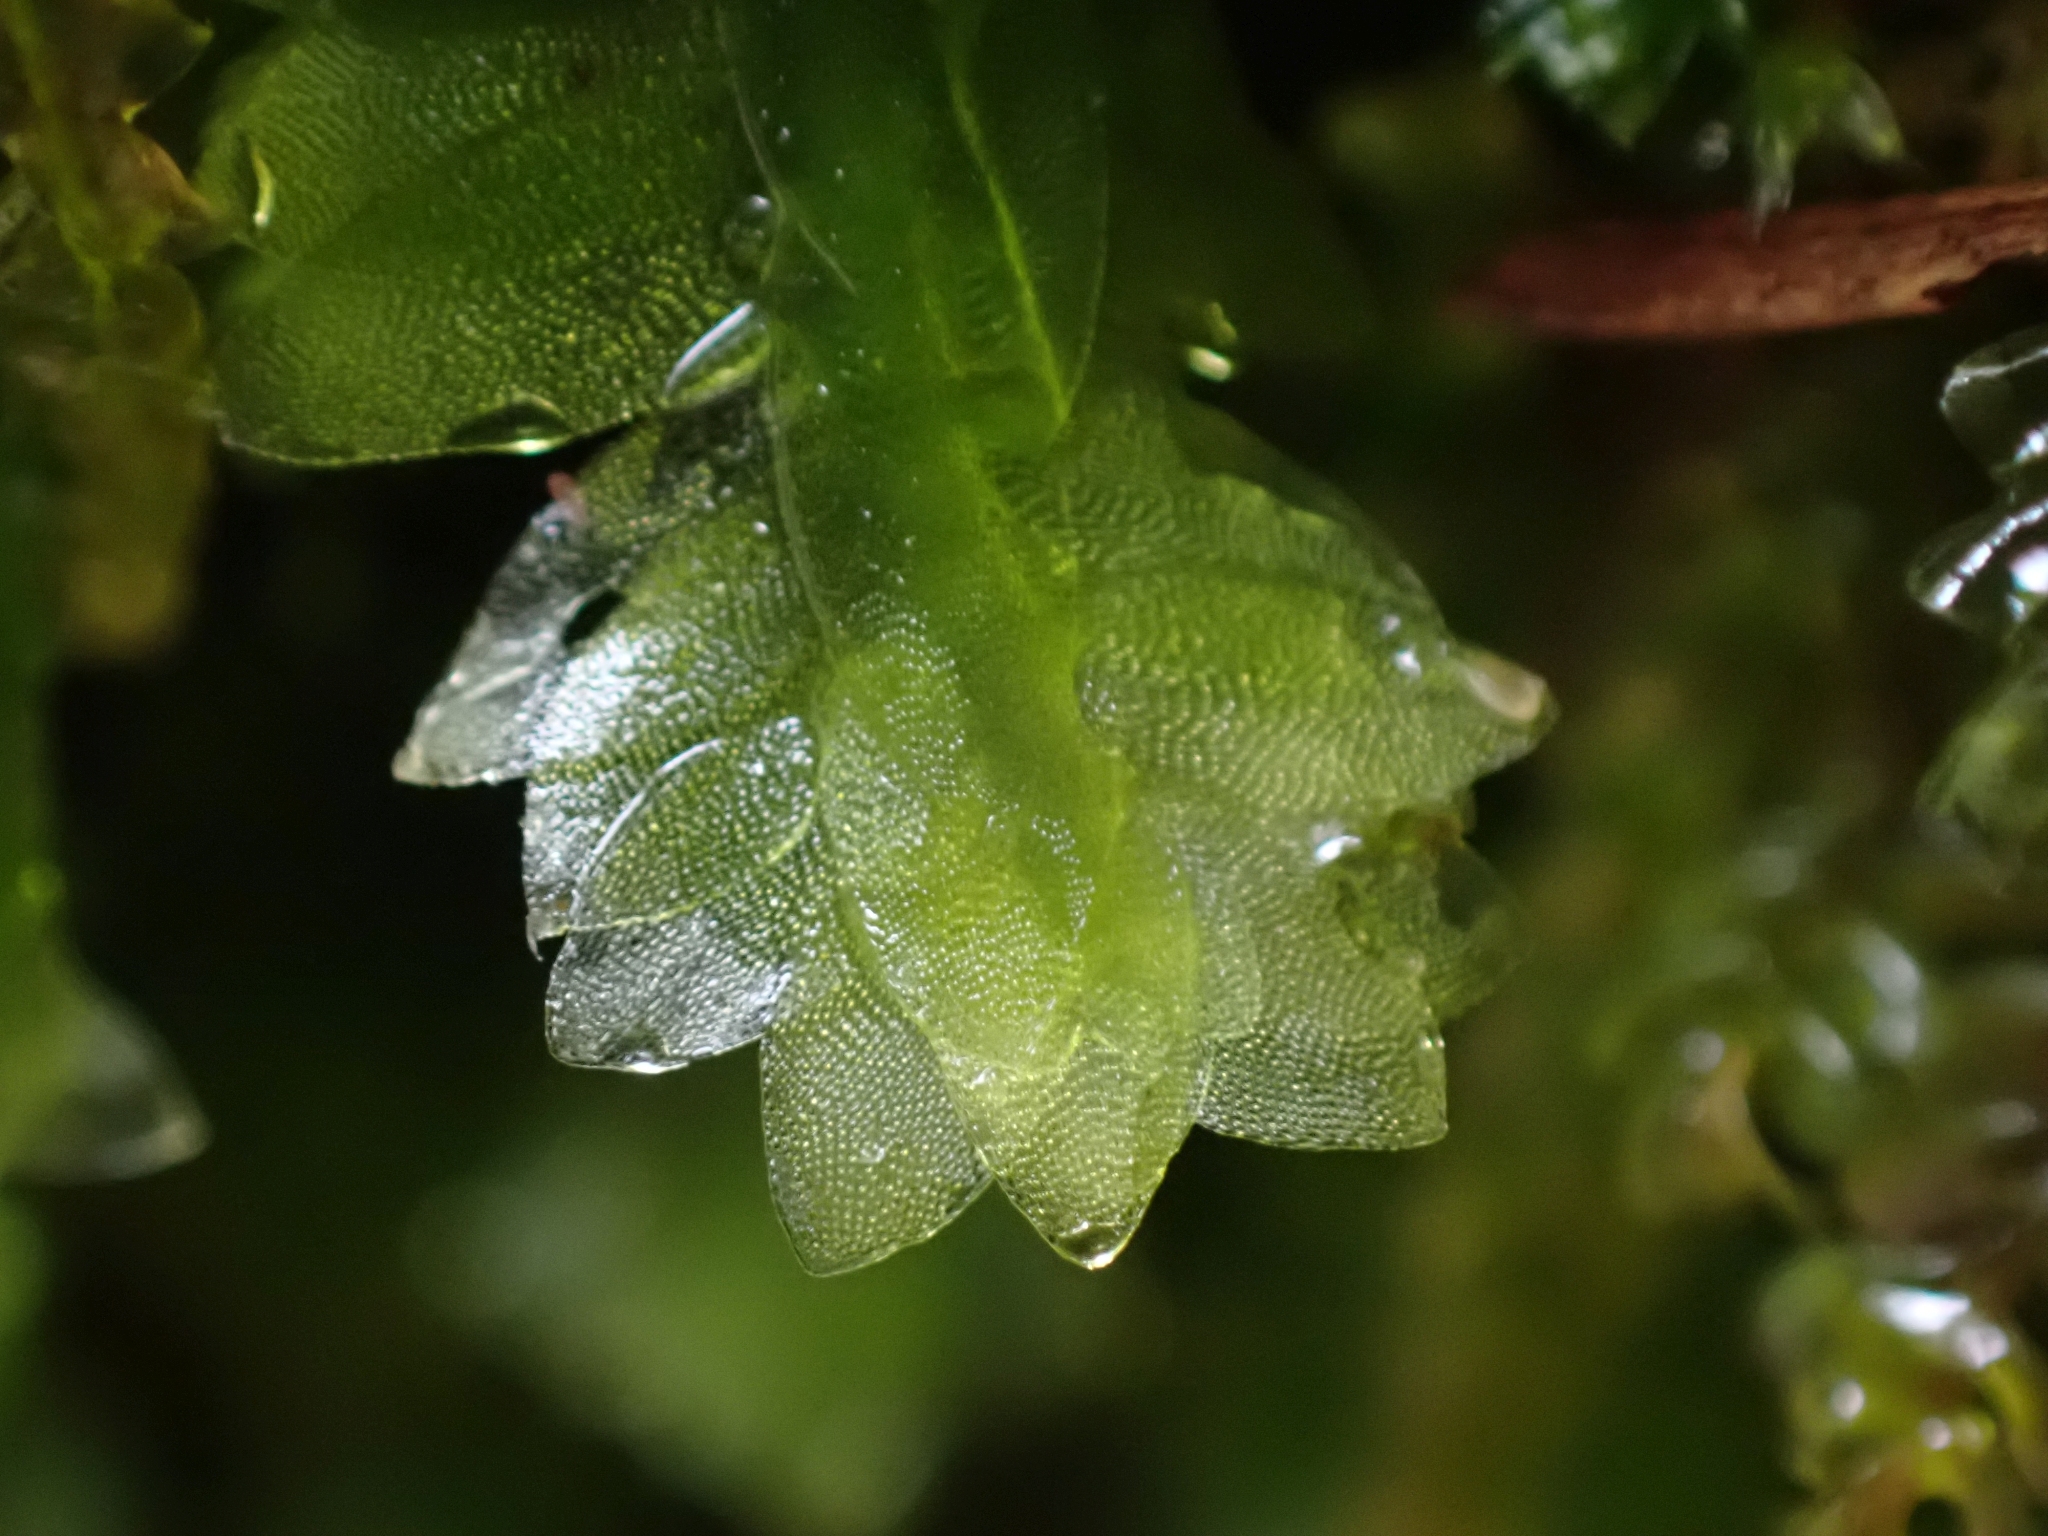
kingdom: Plantae
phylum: Bryophyta
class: Bryopsida
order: Hookeriales
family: Hookeriaceae
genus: Hookeria
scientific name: Hookeria lucens
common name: Shining hookeria
